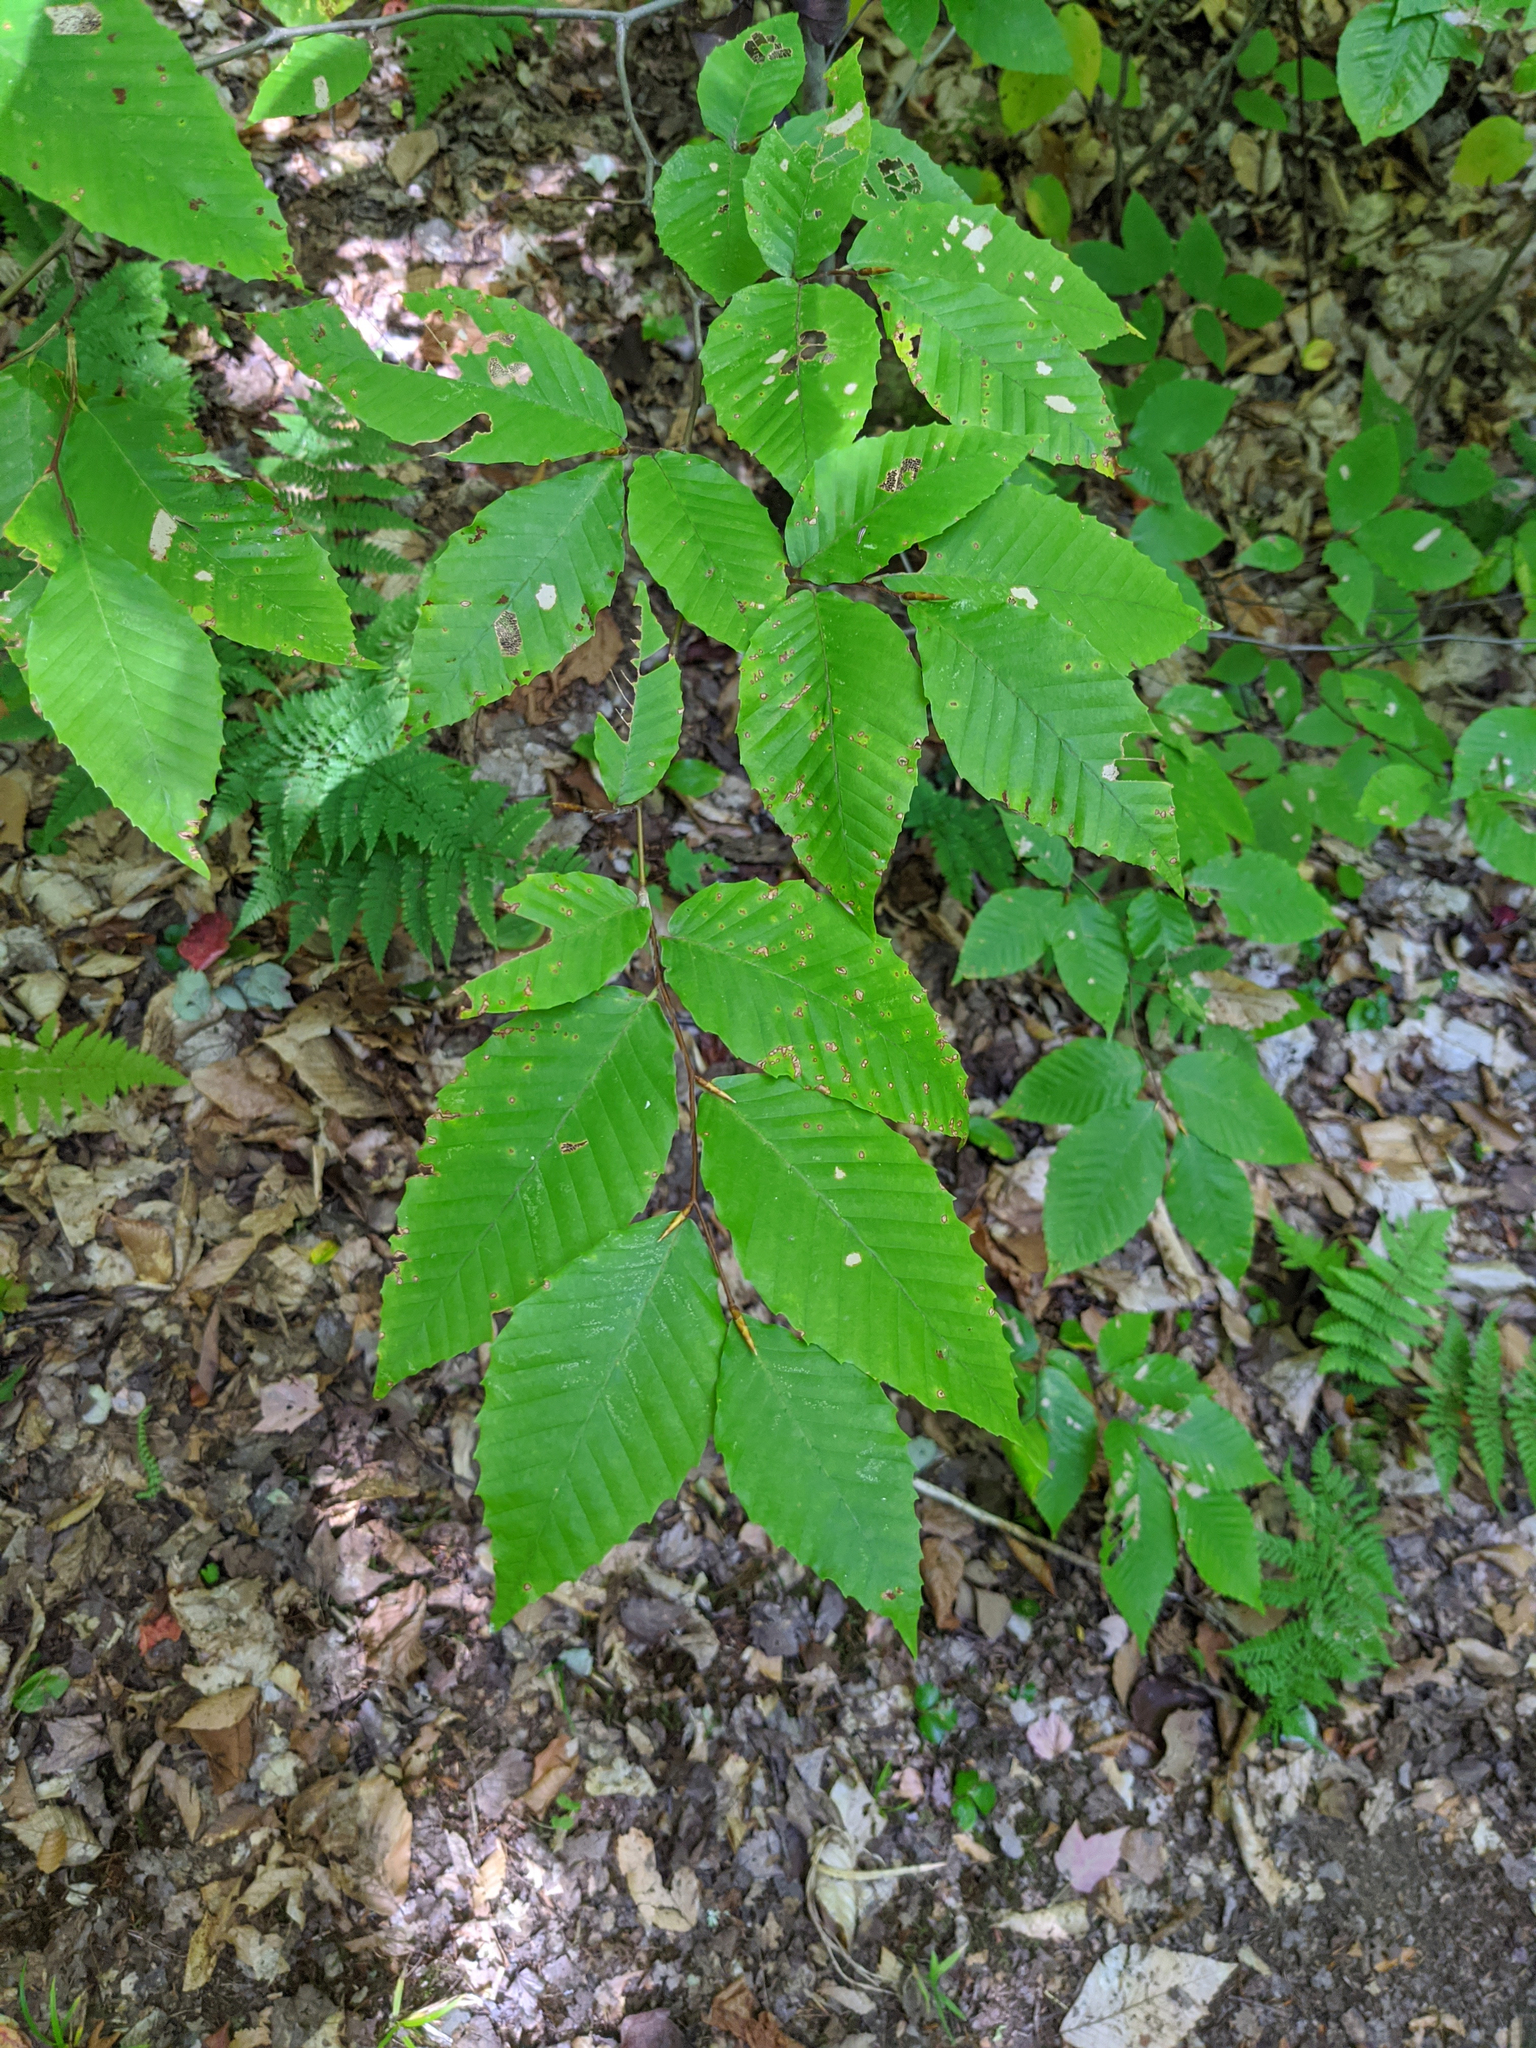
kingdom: Plantae
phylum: Tracheophyta
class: Magnoliopsida
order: Fagales
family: Fagaceae
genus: Fagus
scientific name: Fagus grandifolia
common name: American beech
